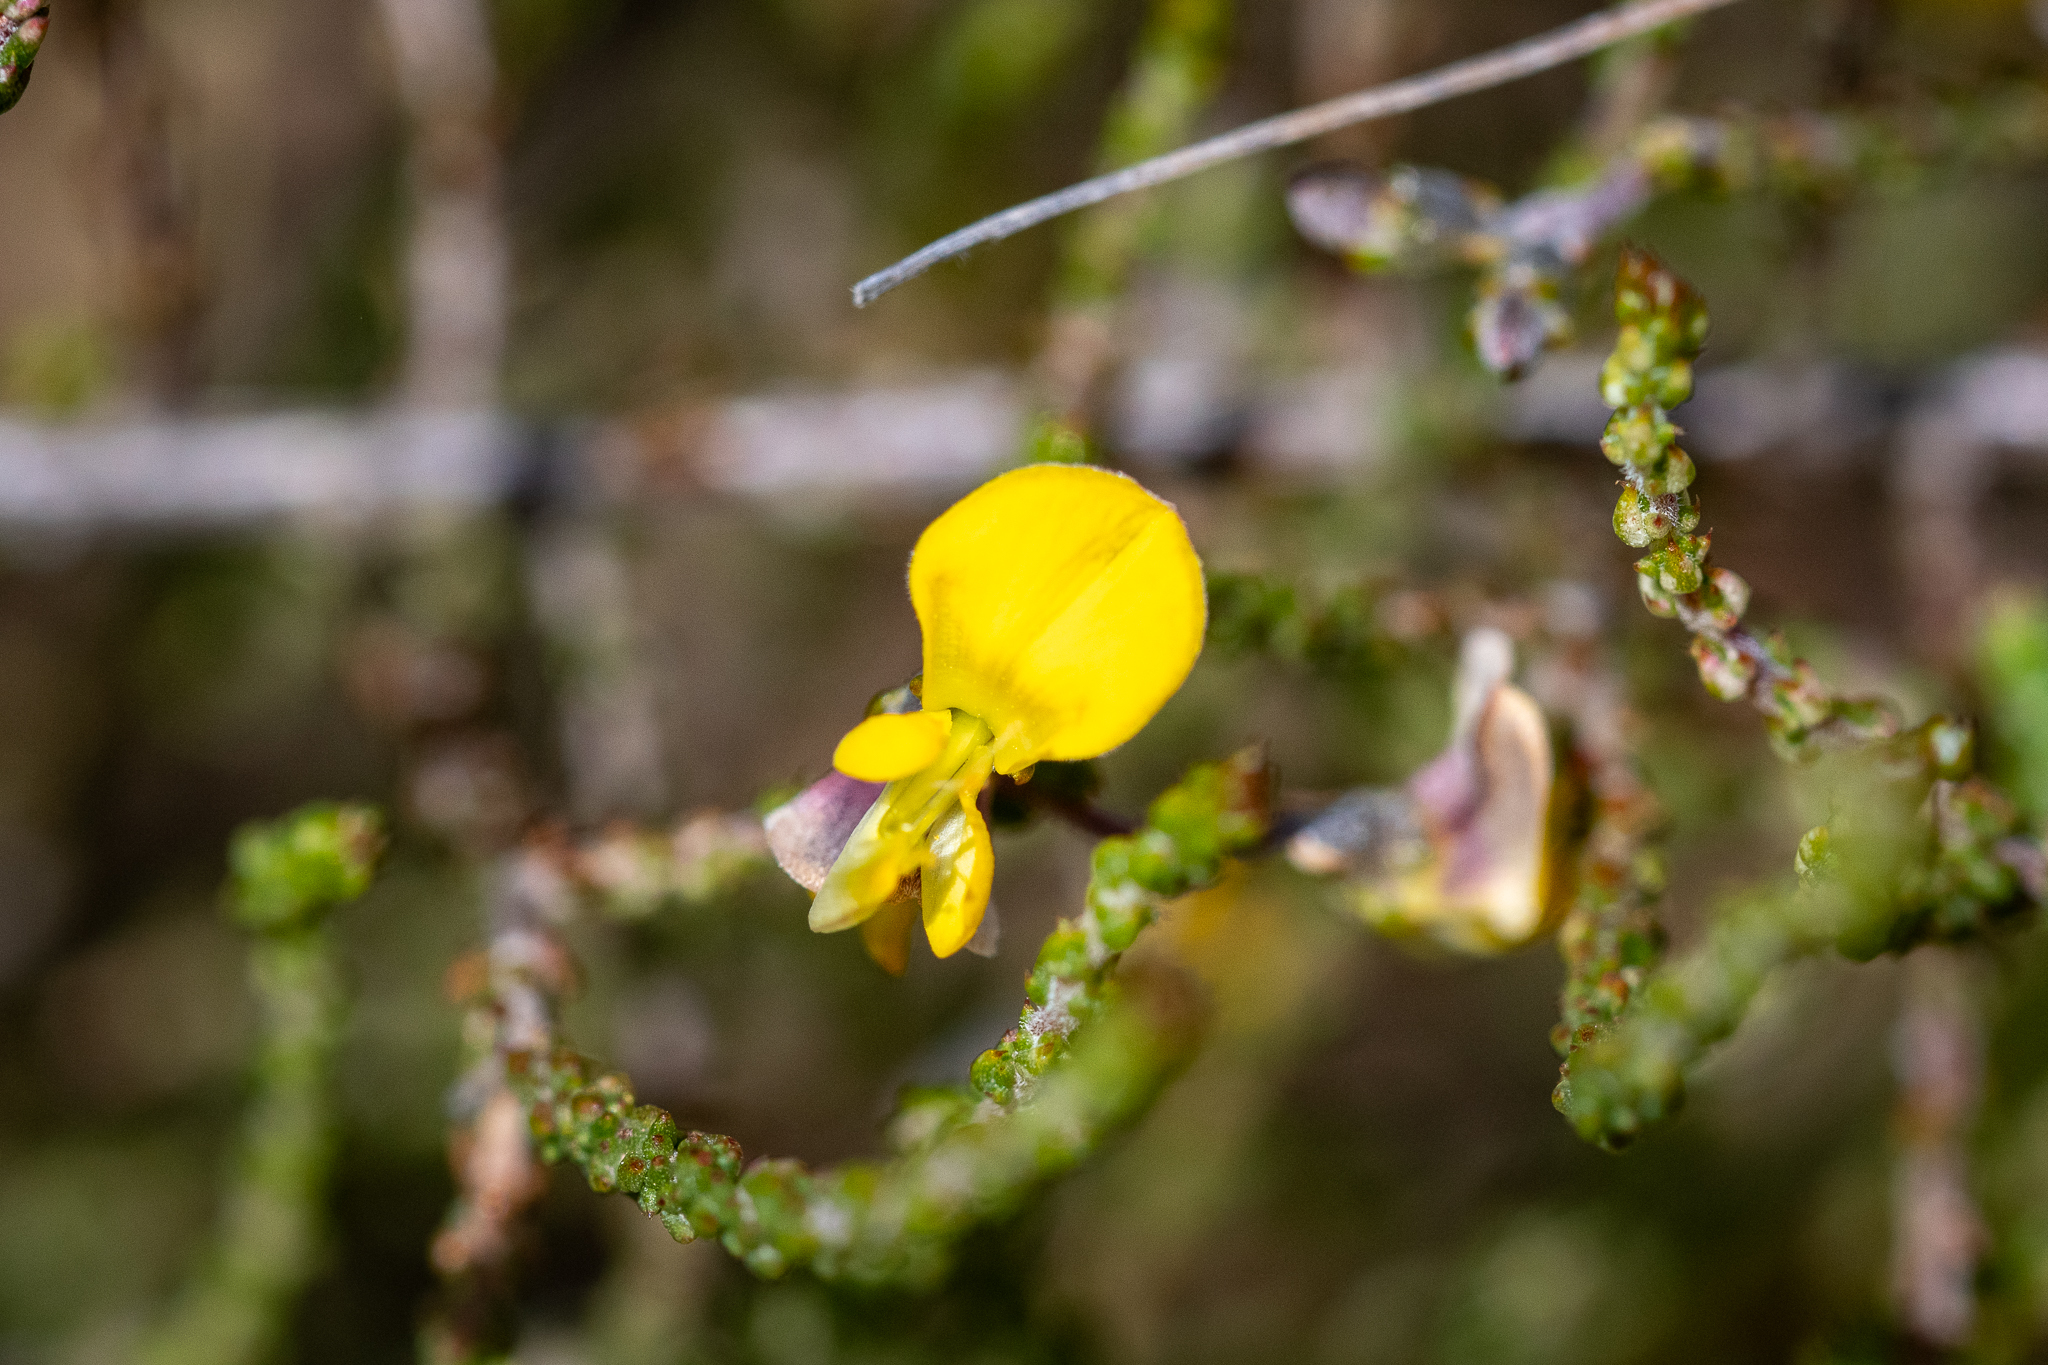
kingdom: Plantae
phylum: Tracheophyta
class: Magnoliopsida
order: Fabales
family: Fabaceae
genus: Aspalathus
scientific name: Aspalathus divaricata
